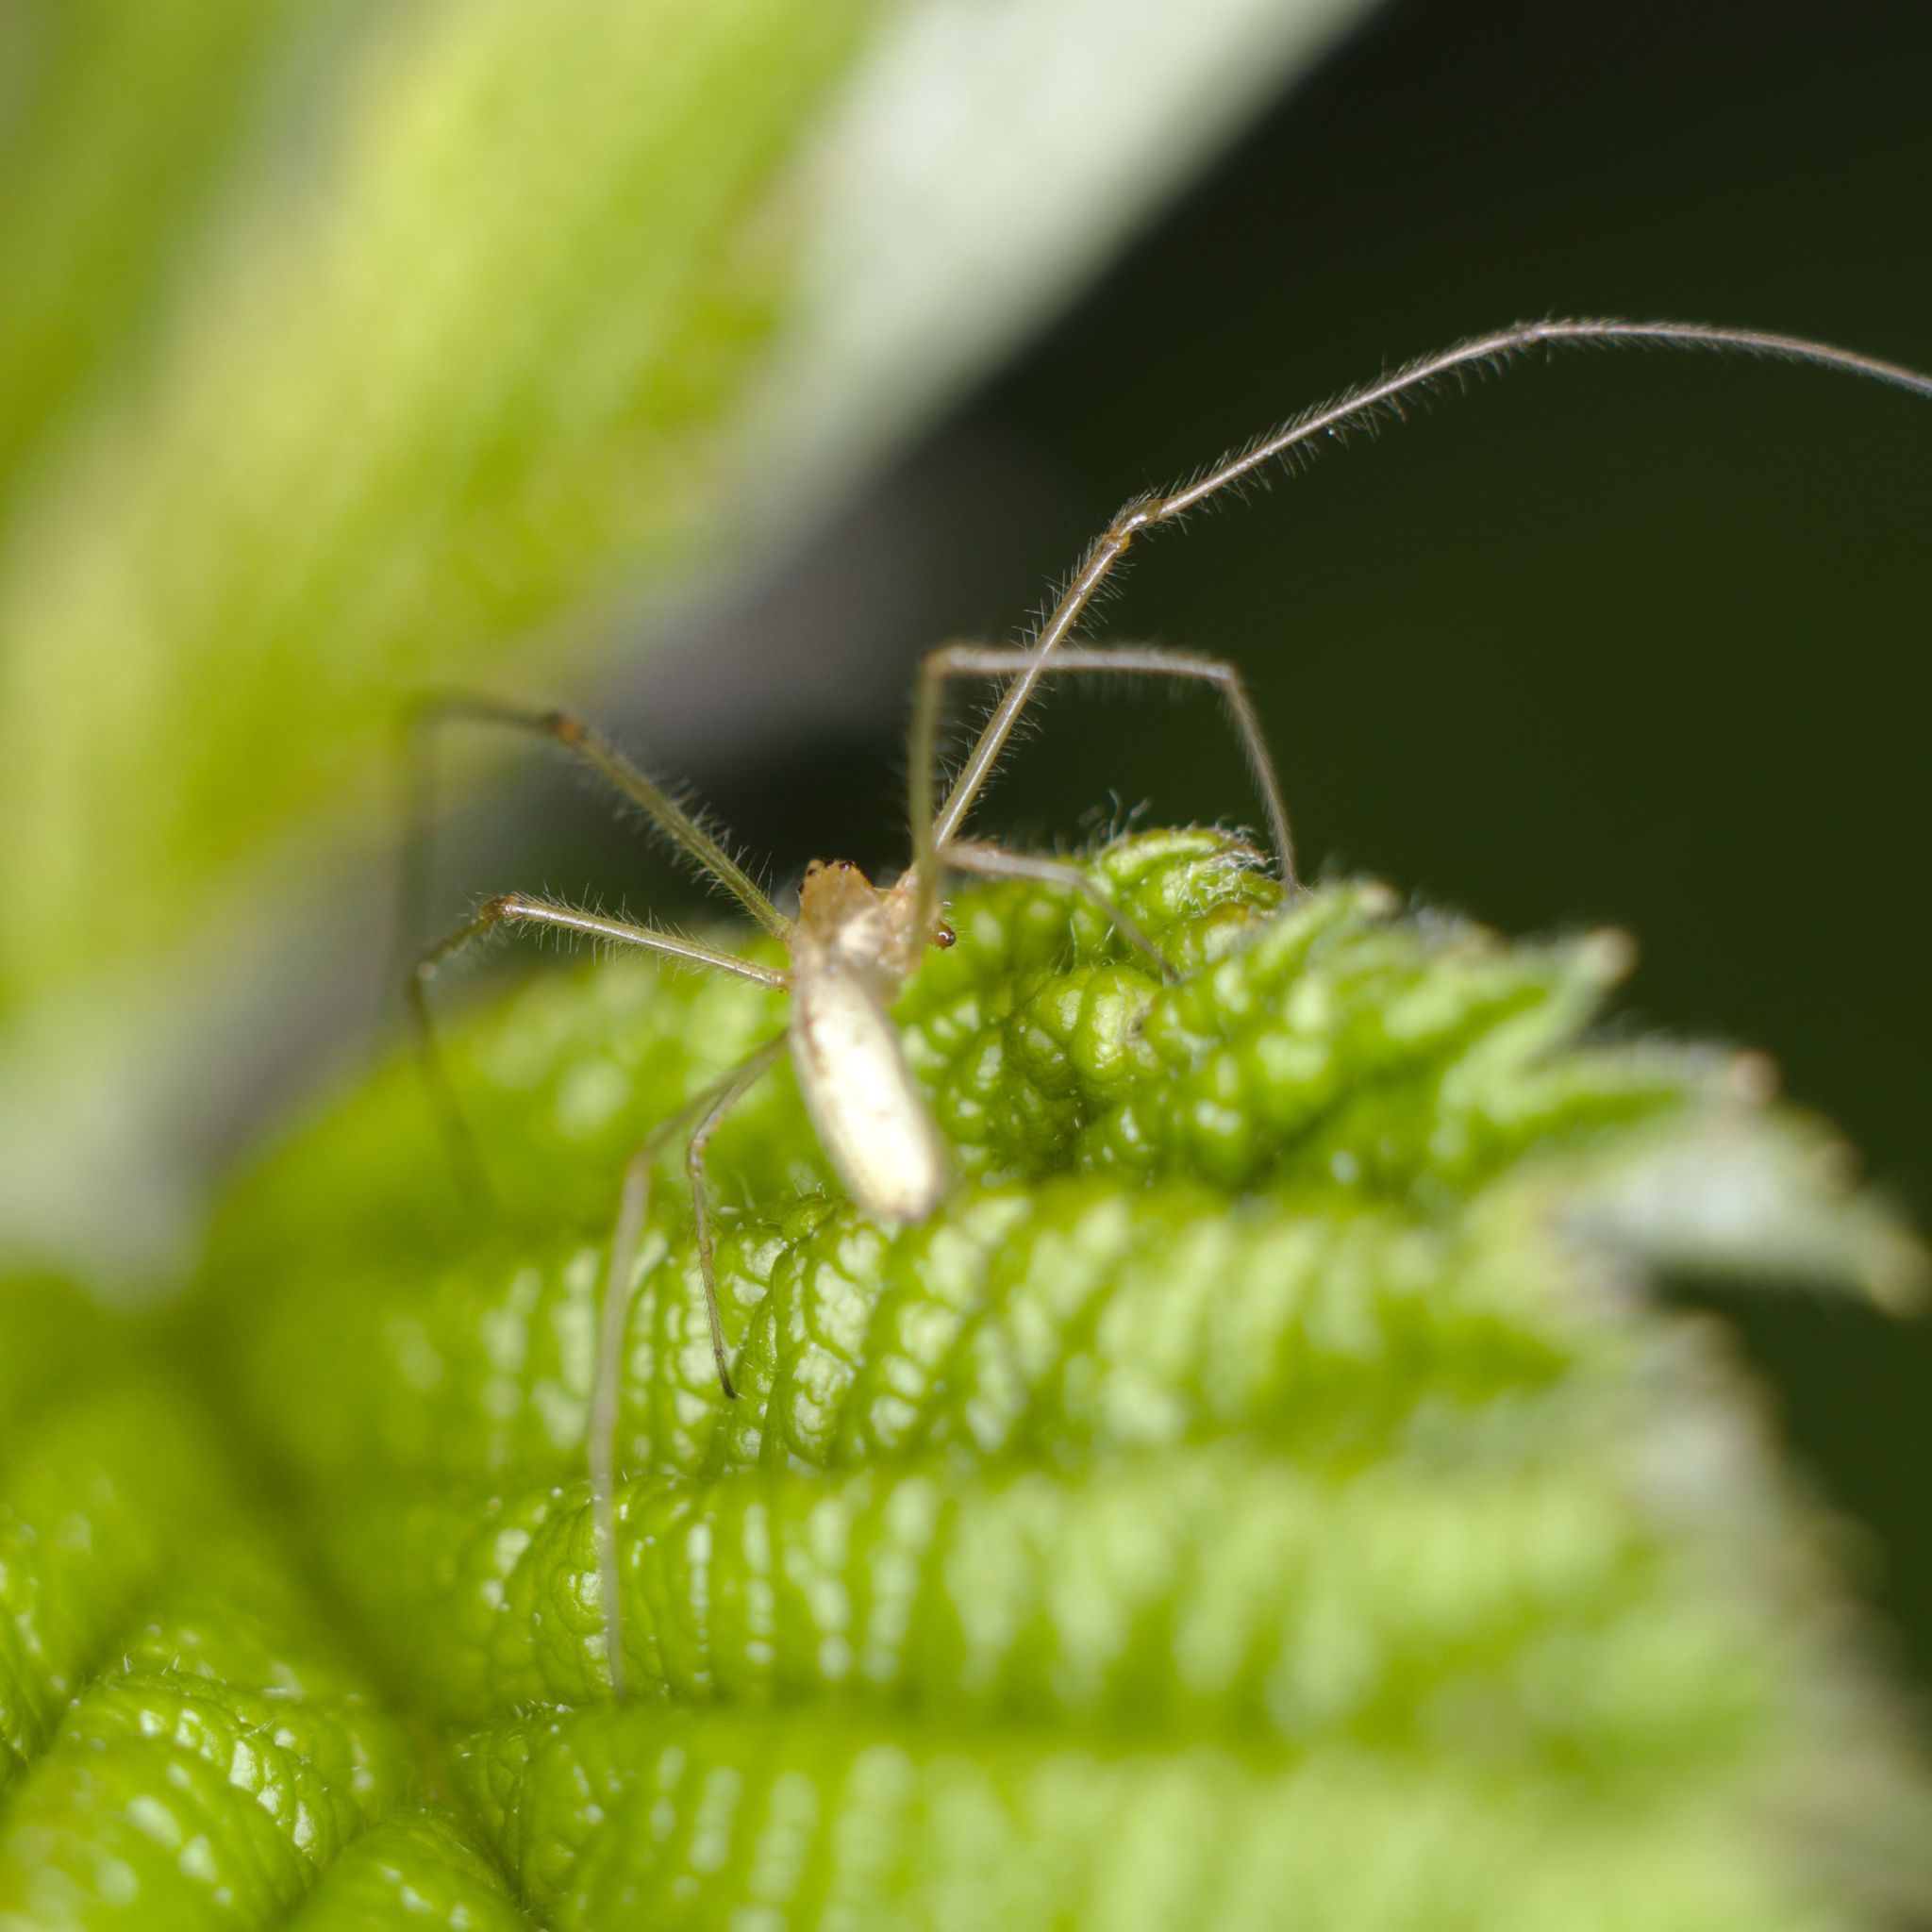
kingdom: Animalia
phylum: Arthropoda
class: Arachnida
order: Araneae
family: Tetragnathidae
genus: Tetragnatha
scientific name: Tetragnatha
